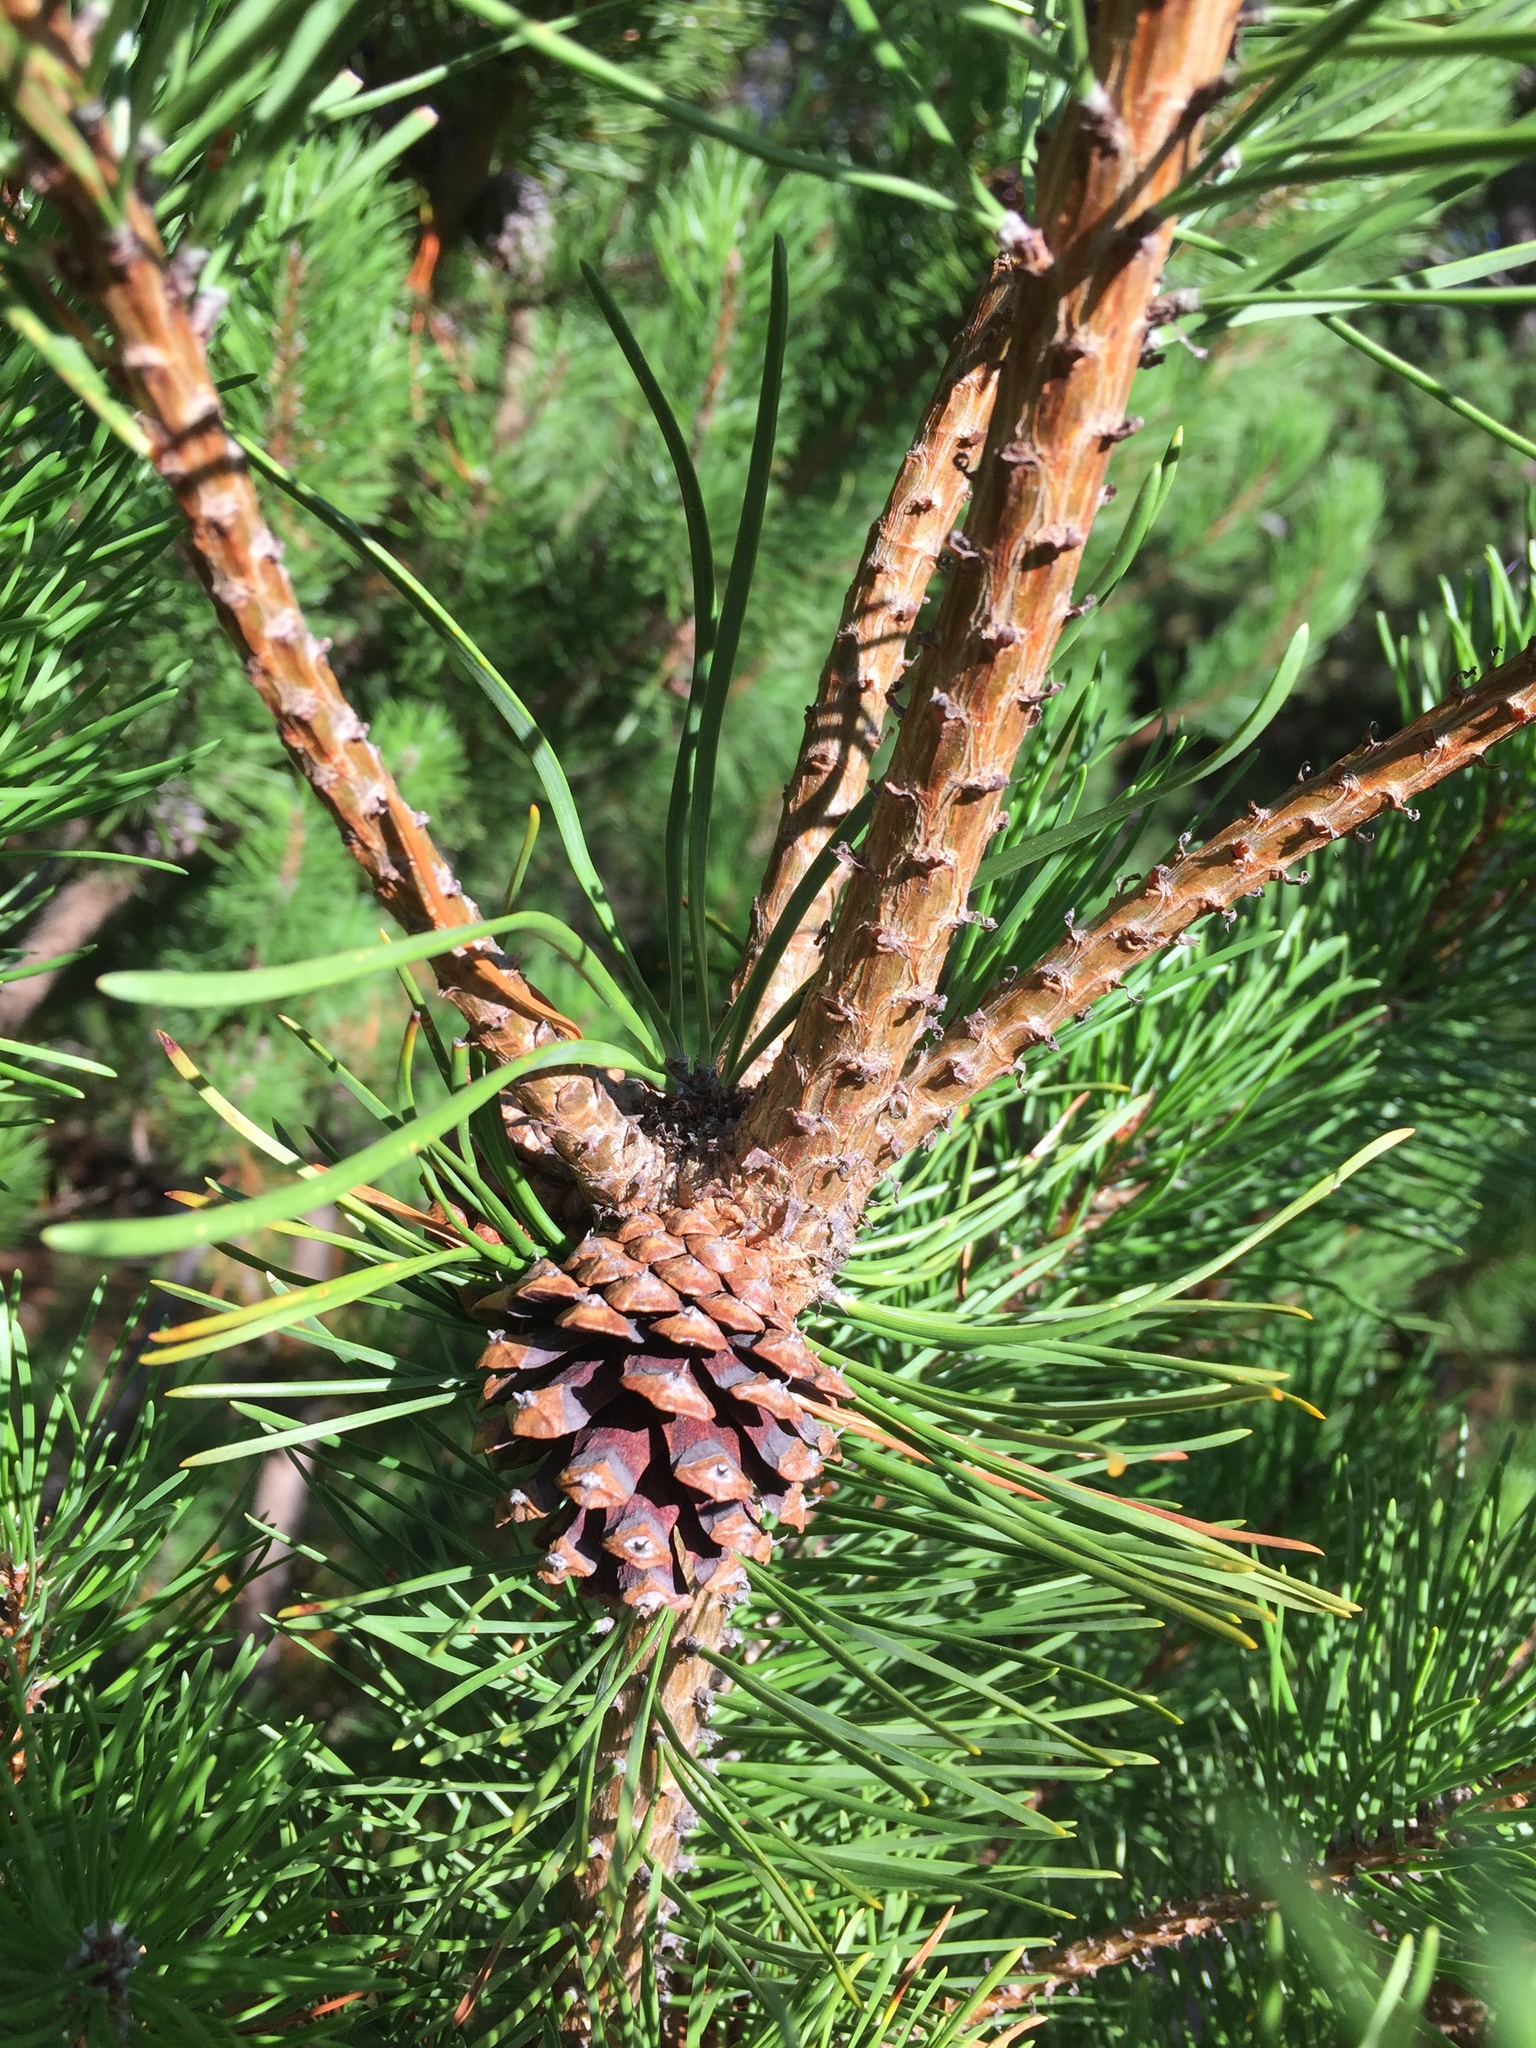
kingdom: Plantae
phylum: Tracheophyta
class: Pinopsida
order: Pinales
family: Pinaceae
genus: Pinus
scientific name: Pinus contorta
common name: Lodgepole pine
